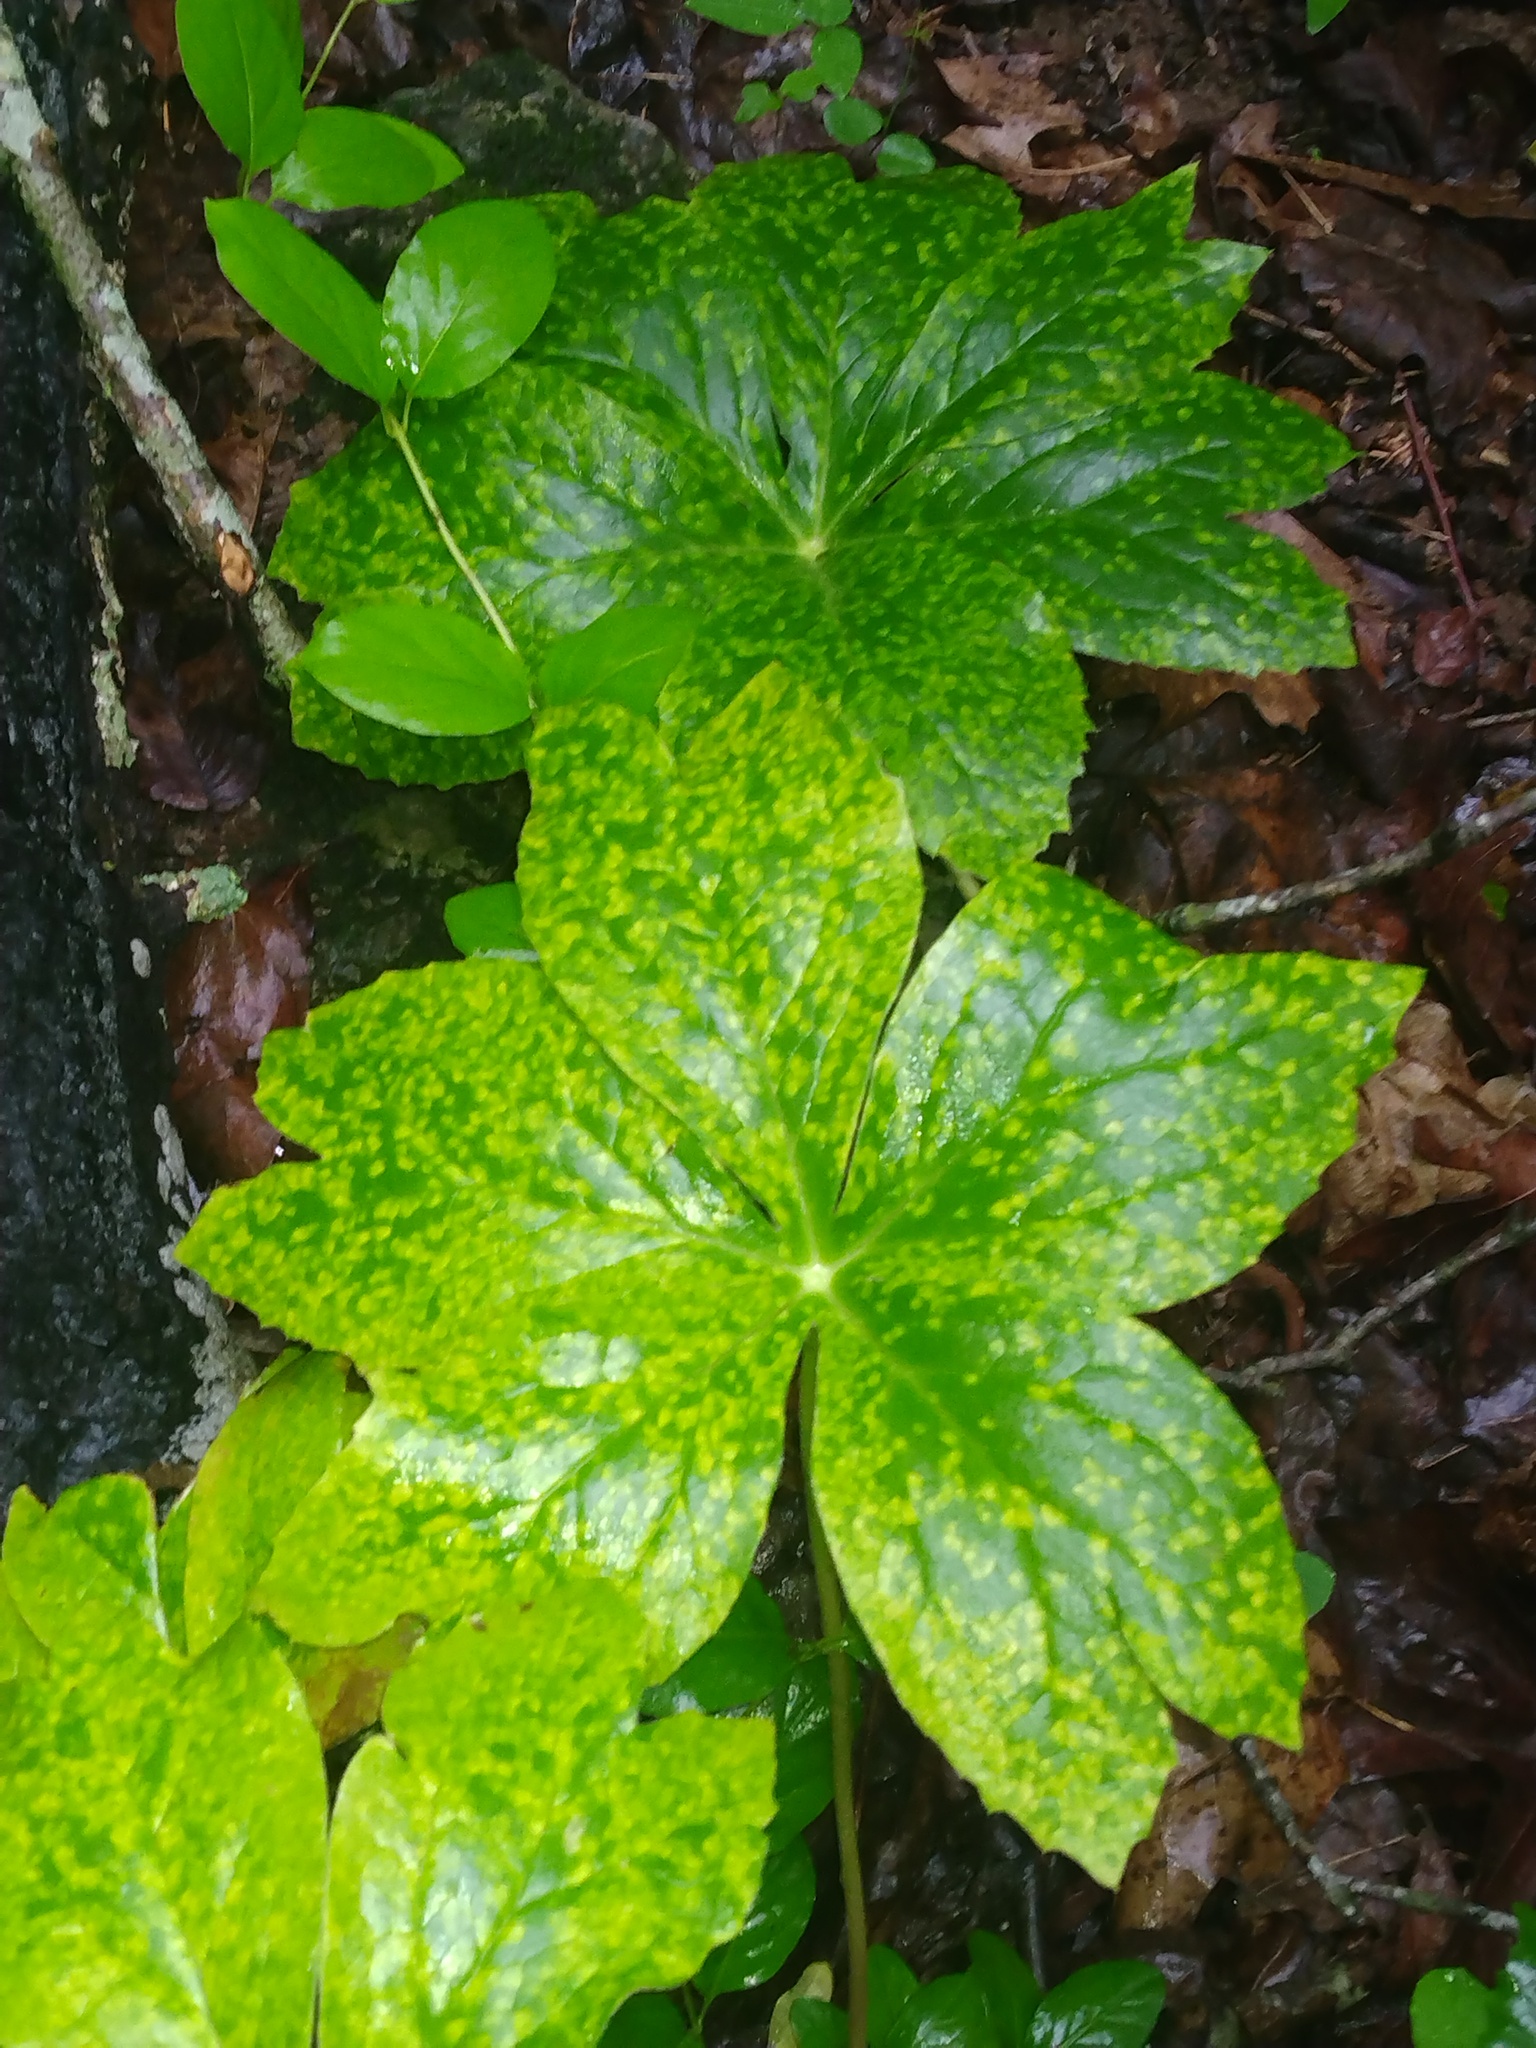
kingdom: Fungi
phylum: Basidiomycota
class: Pucciniomycetes
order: Pucciniales
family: Pucciniaceae
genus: Puccinia
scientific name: Puccinia podophylli
